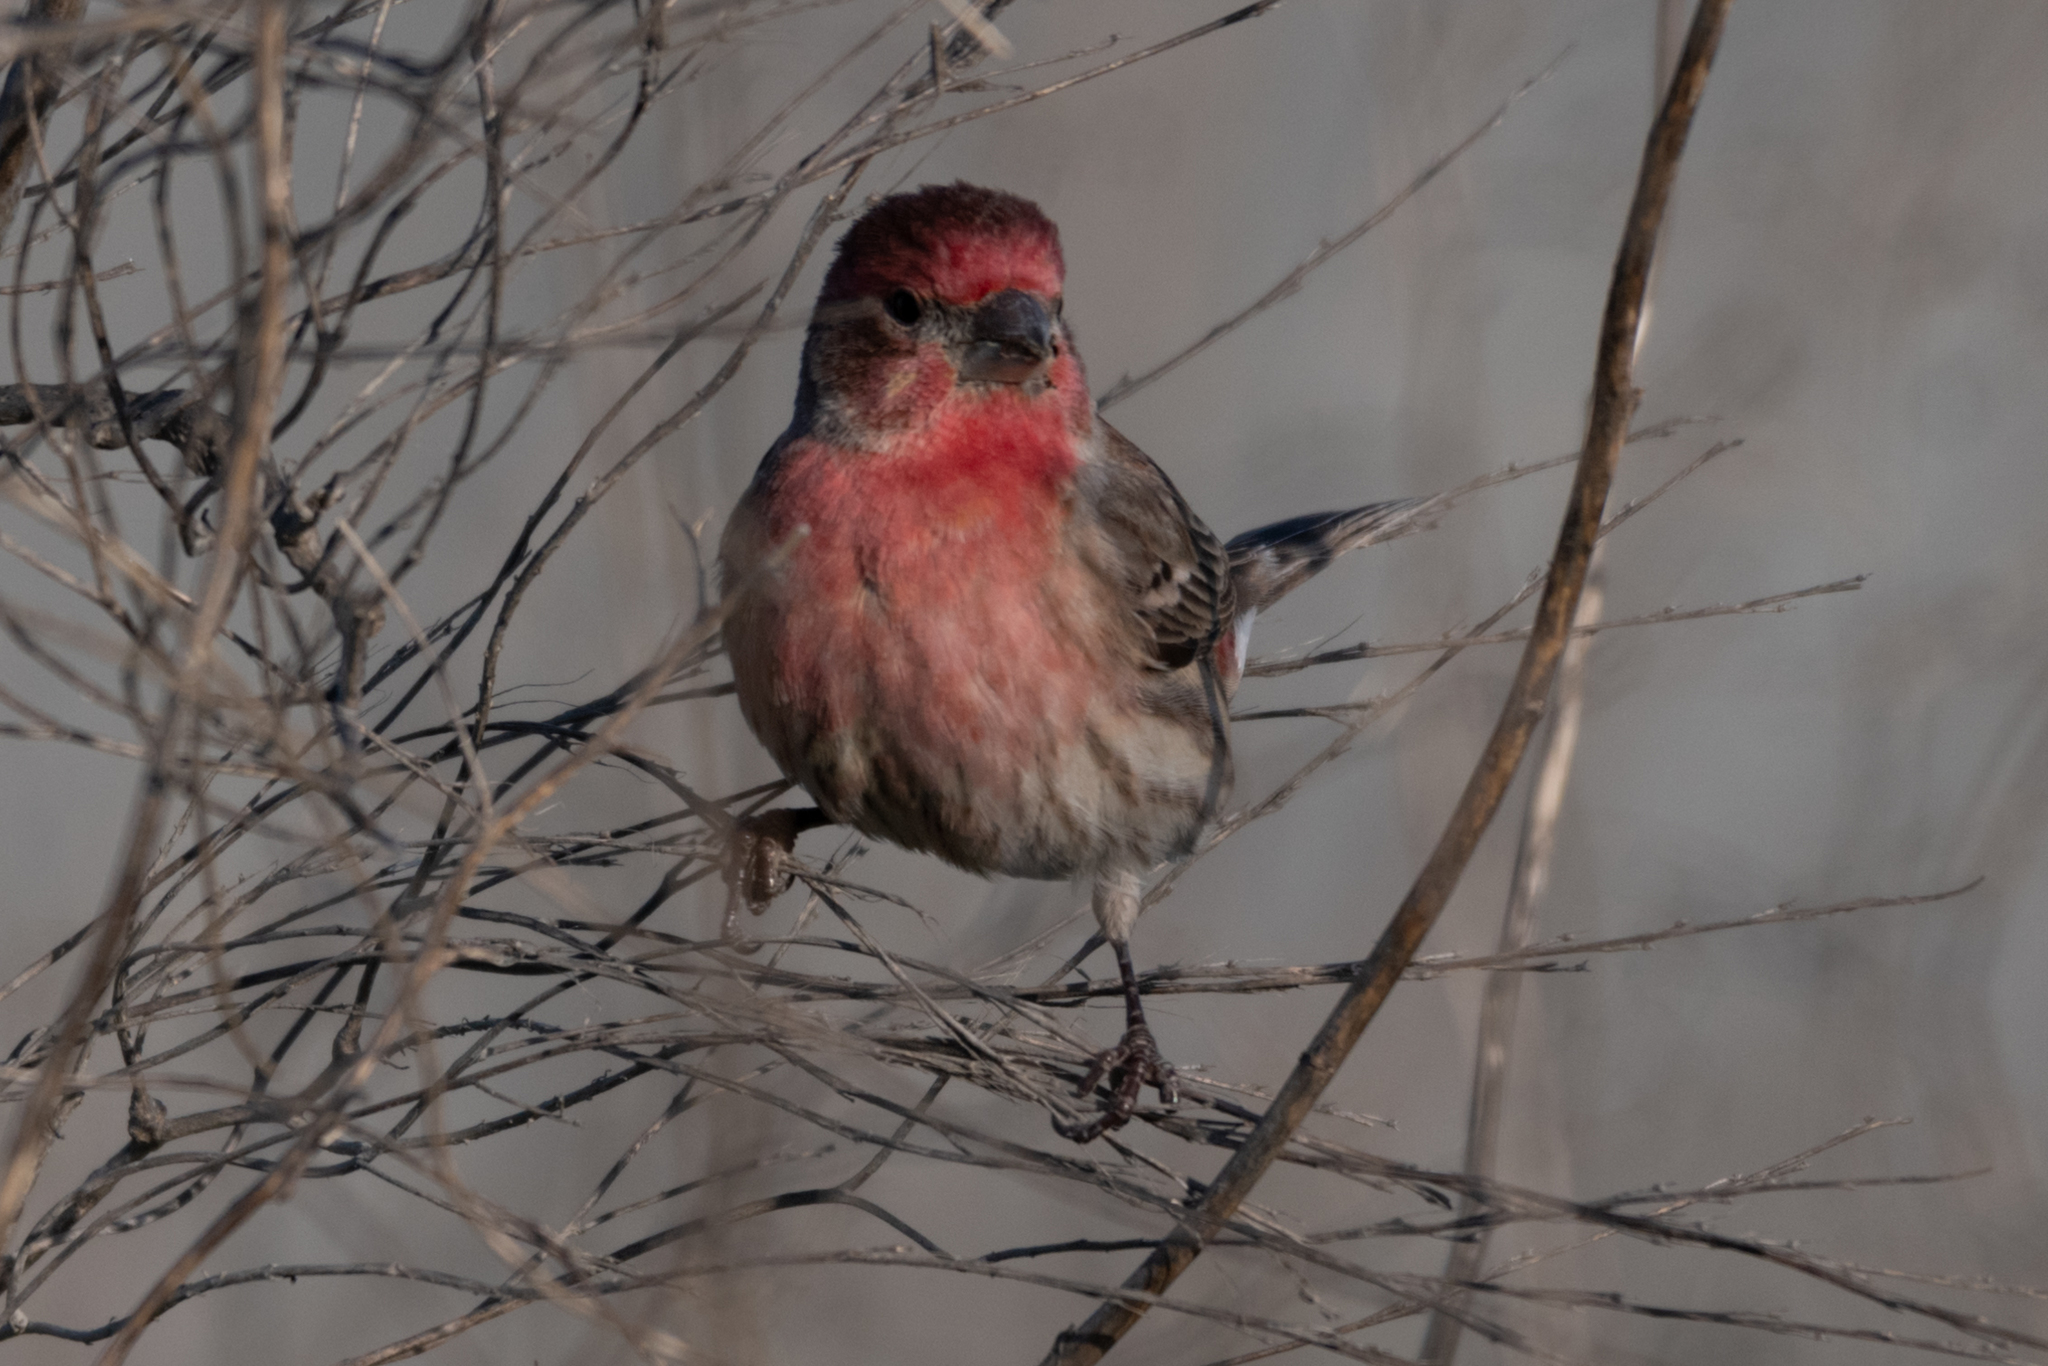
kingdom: Animalia
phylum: Chordata
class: Aves
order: Passeriformes
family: Fringillidae
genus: Haemorhous
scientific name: Haemorhous mexicanus
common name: House finch
